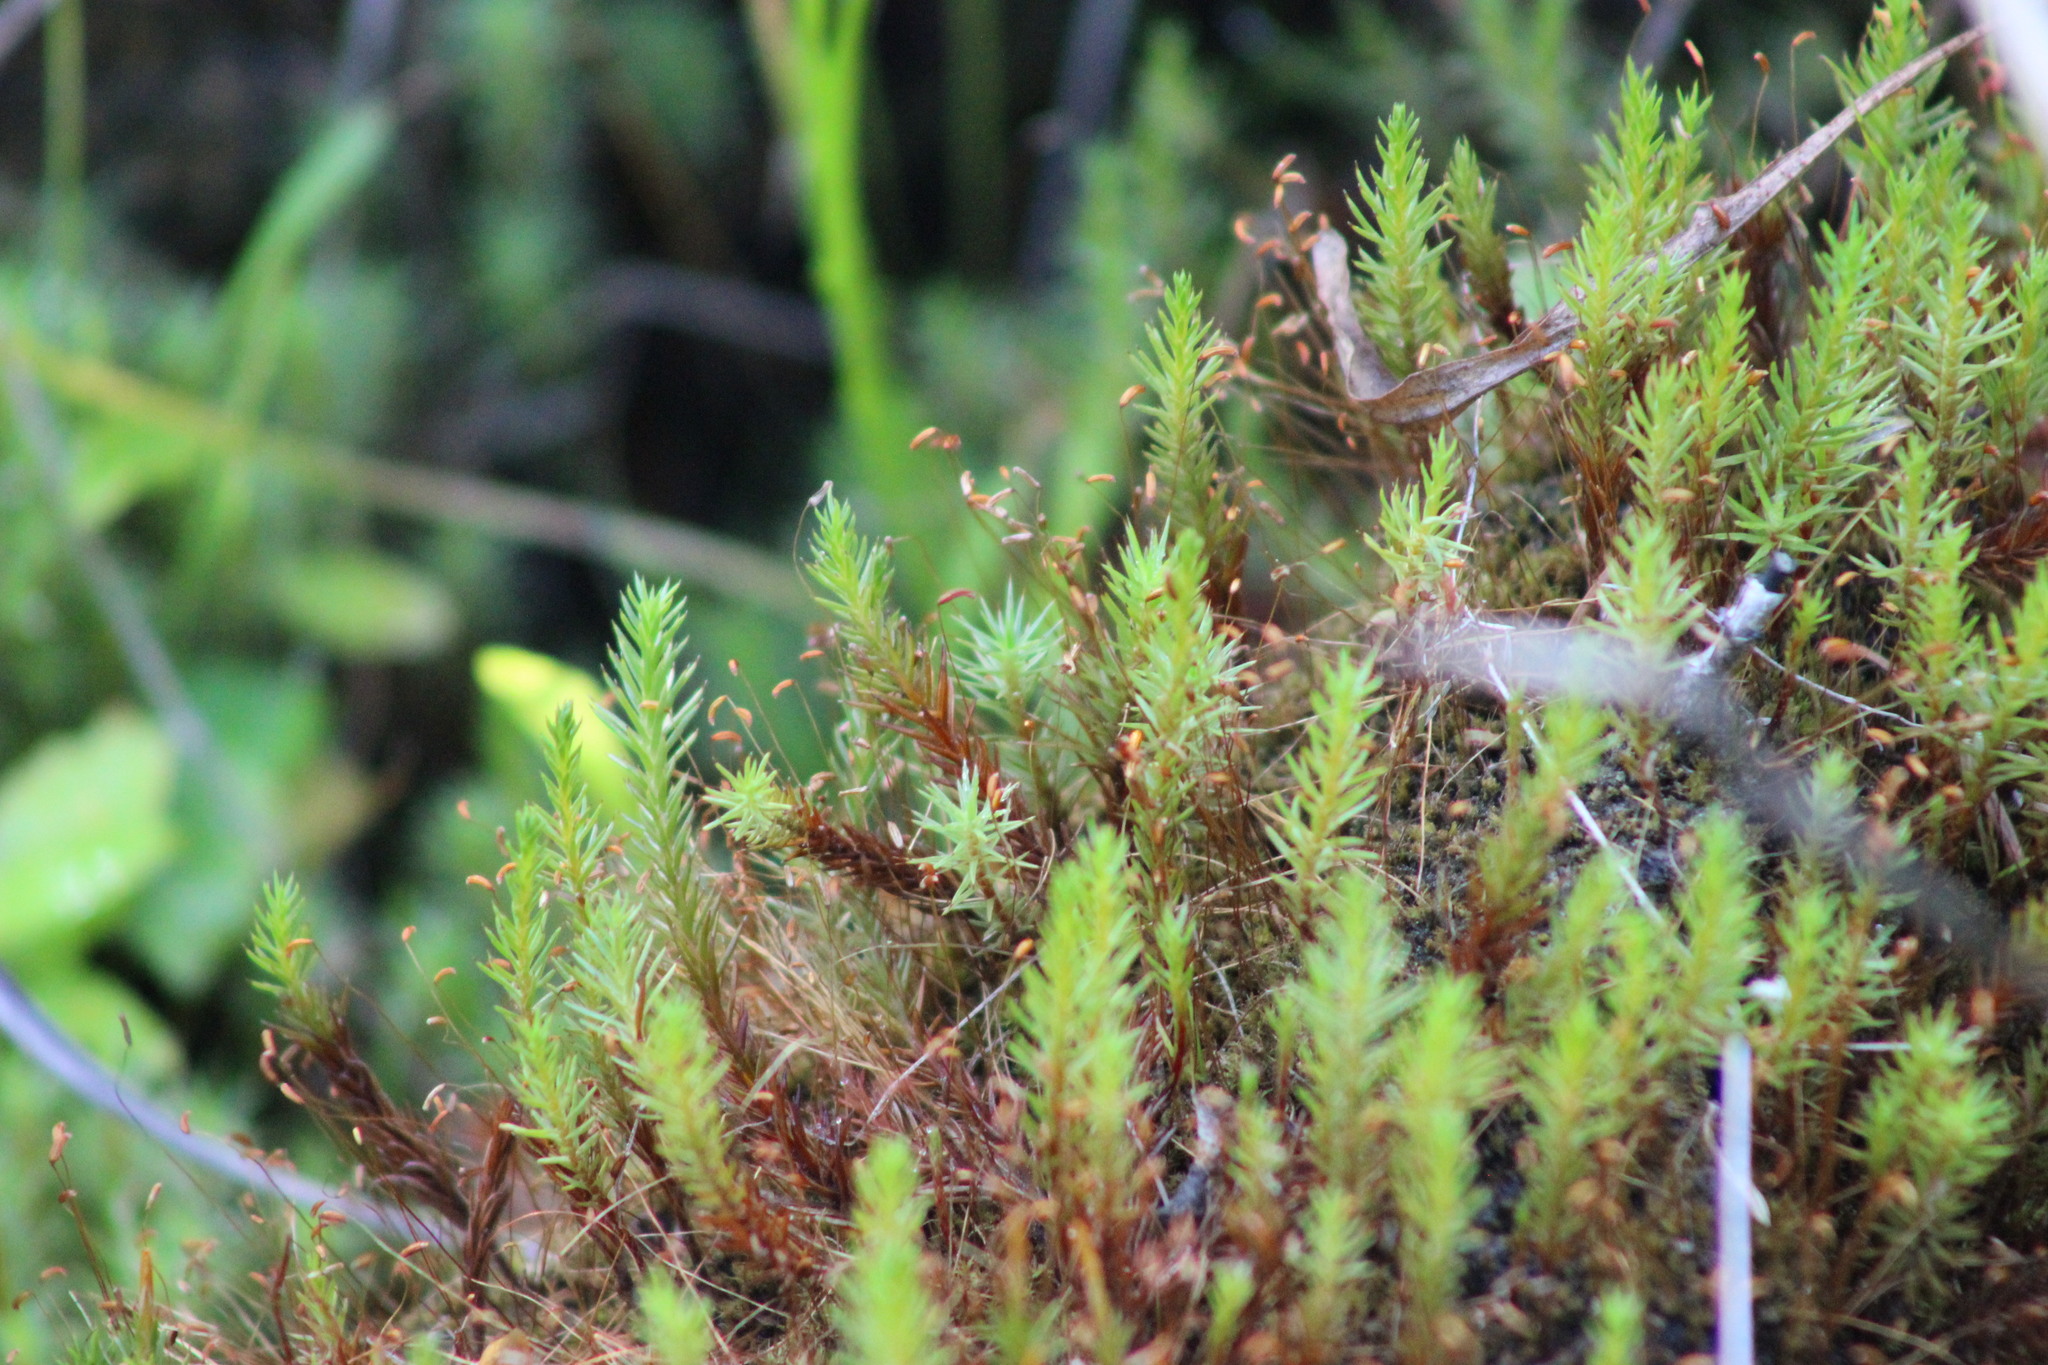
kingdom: Plantae
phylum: Bryophyta
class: Polytrichopsida
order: Polytrichales
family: Polytrichaceae
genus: Polytrichum
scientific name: Polytrichum strictum
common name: Bog haircap moss
